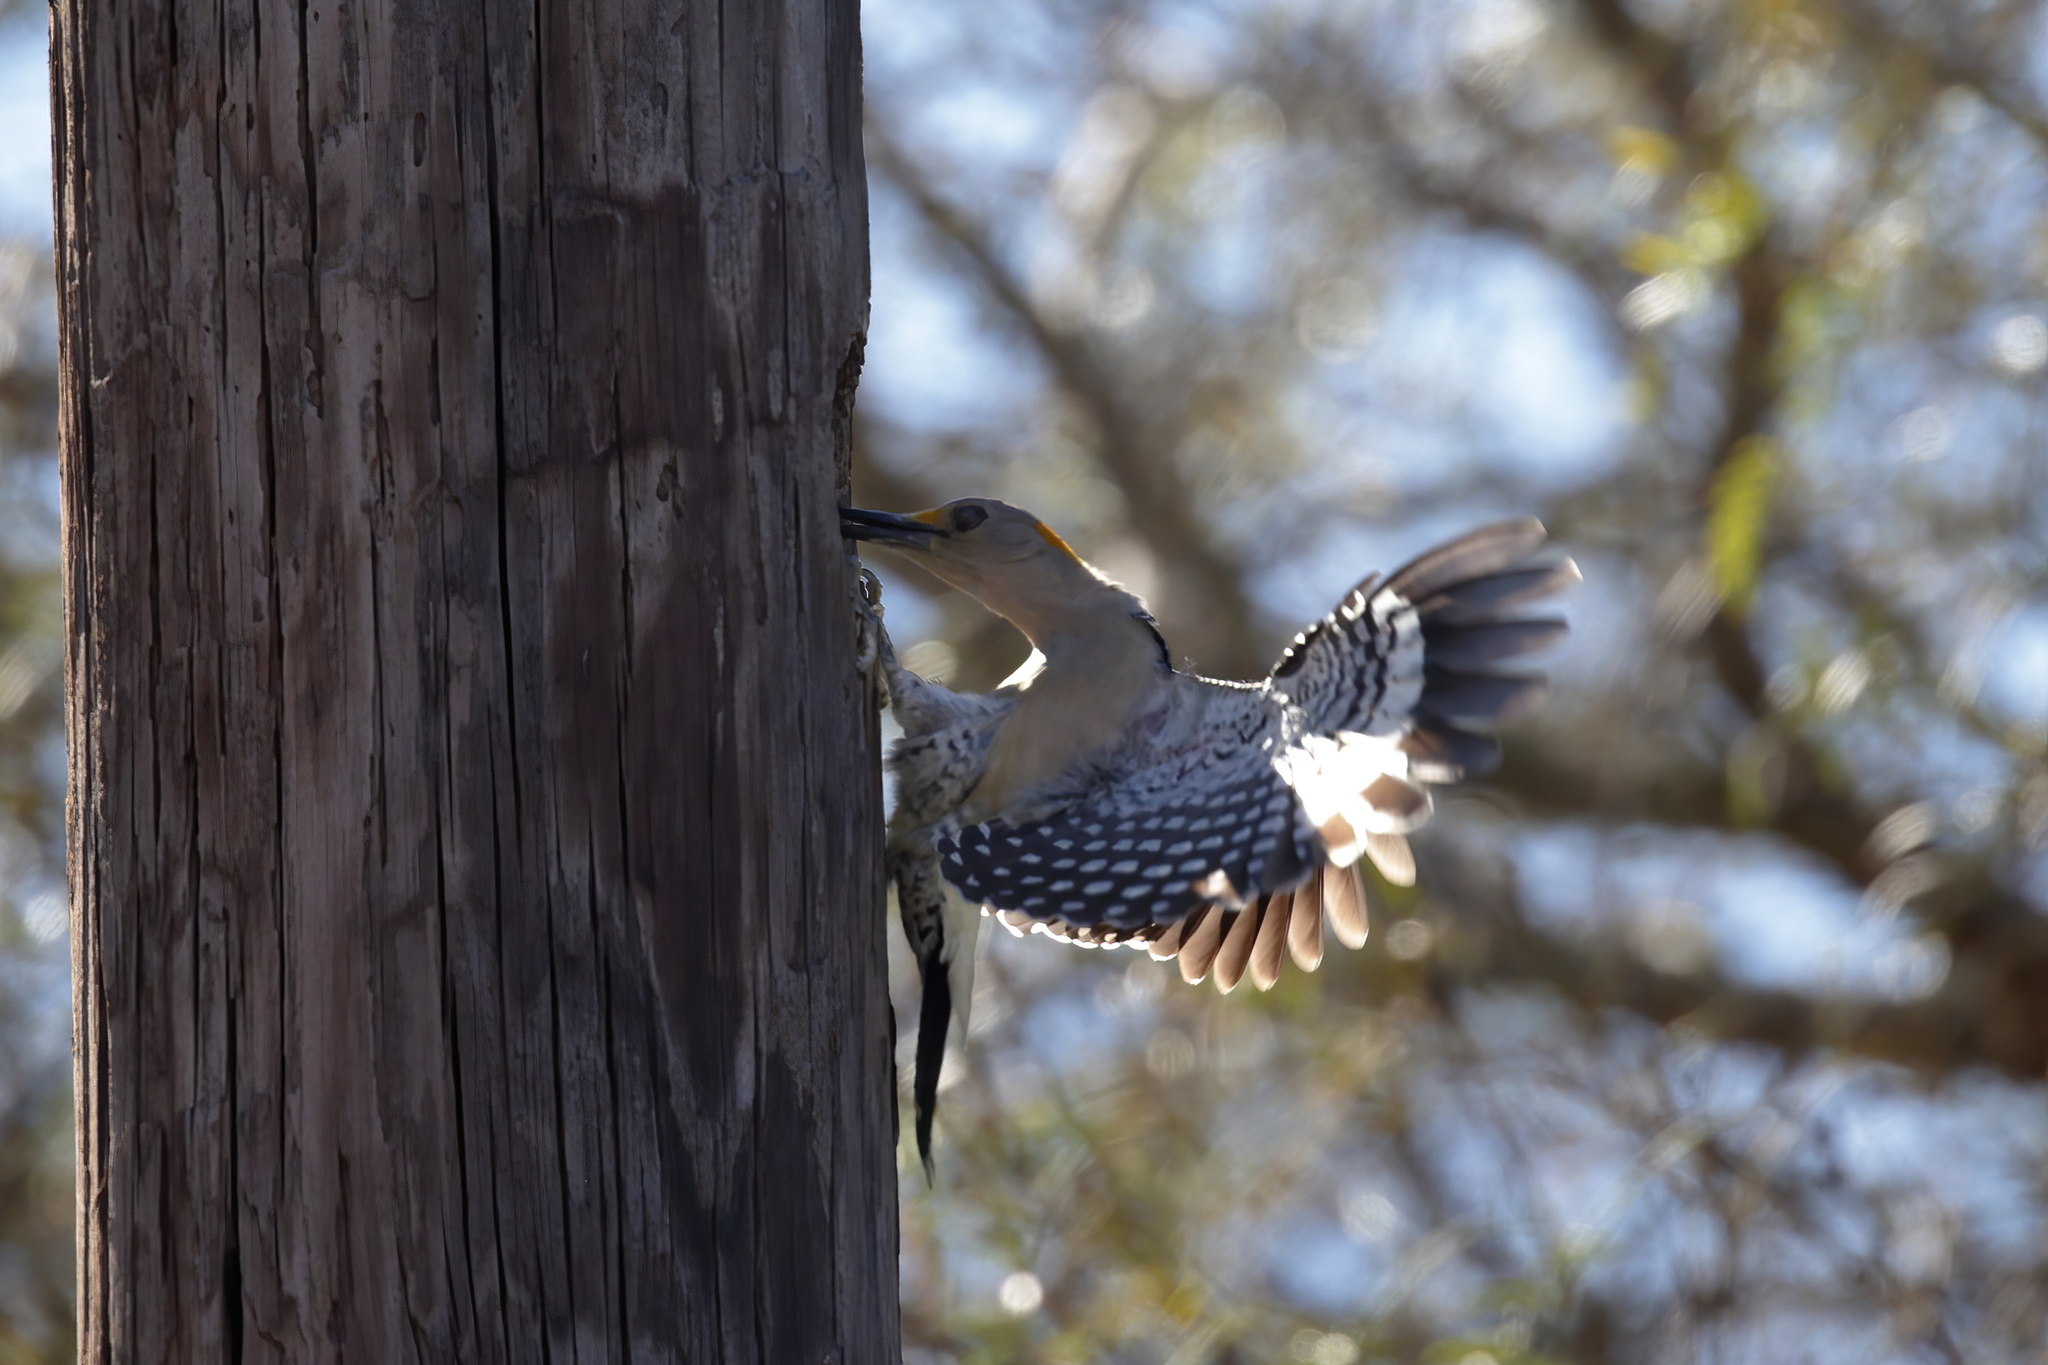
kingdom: Animalia
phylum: Chordata
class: Aves
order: Piciformes
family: Picidae
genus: Melanerpes
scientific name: Melanerpes aurifrons
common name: Golden-fronted woodpecker
